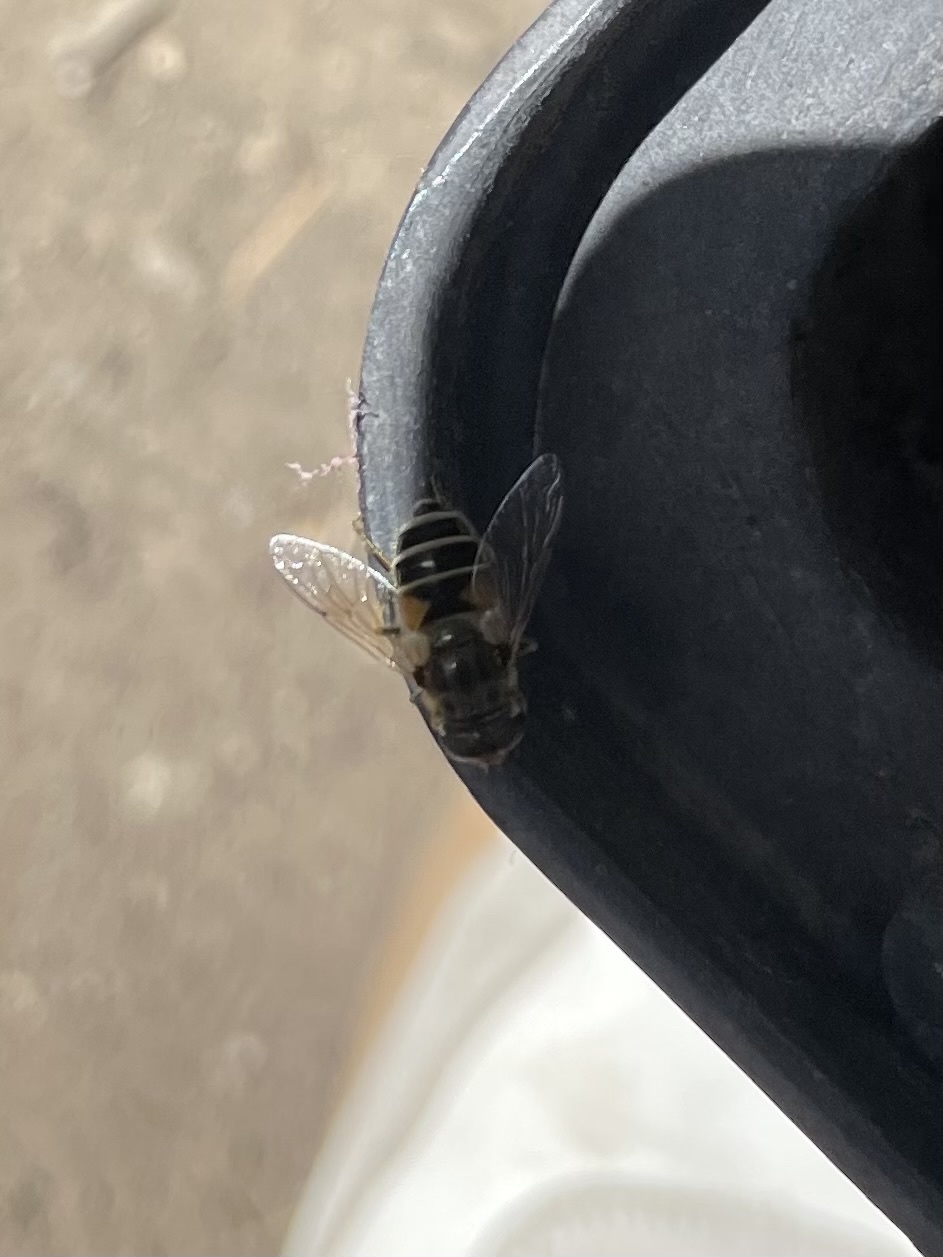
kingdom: Animalia
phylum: Arthropoda
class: Insecta
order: Diptera
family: Syrphidae
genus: Eristalis
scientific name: Eristalis arbustorum
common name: Hover fly
